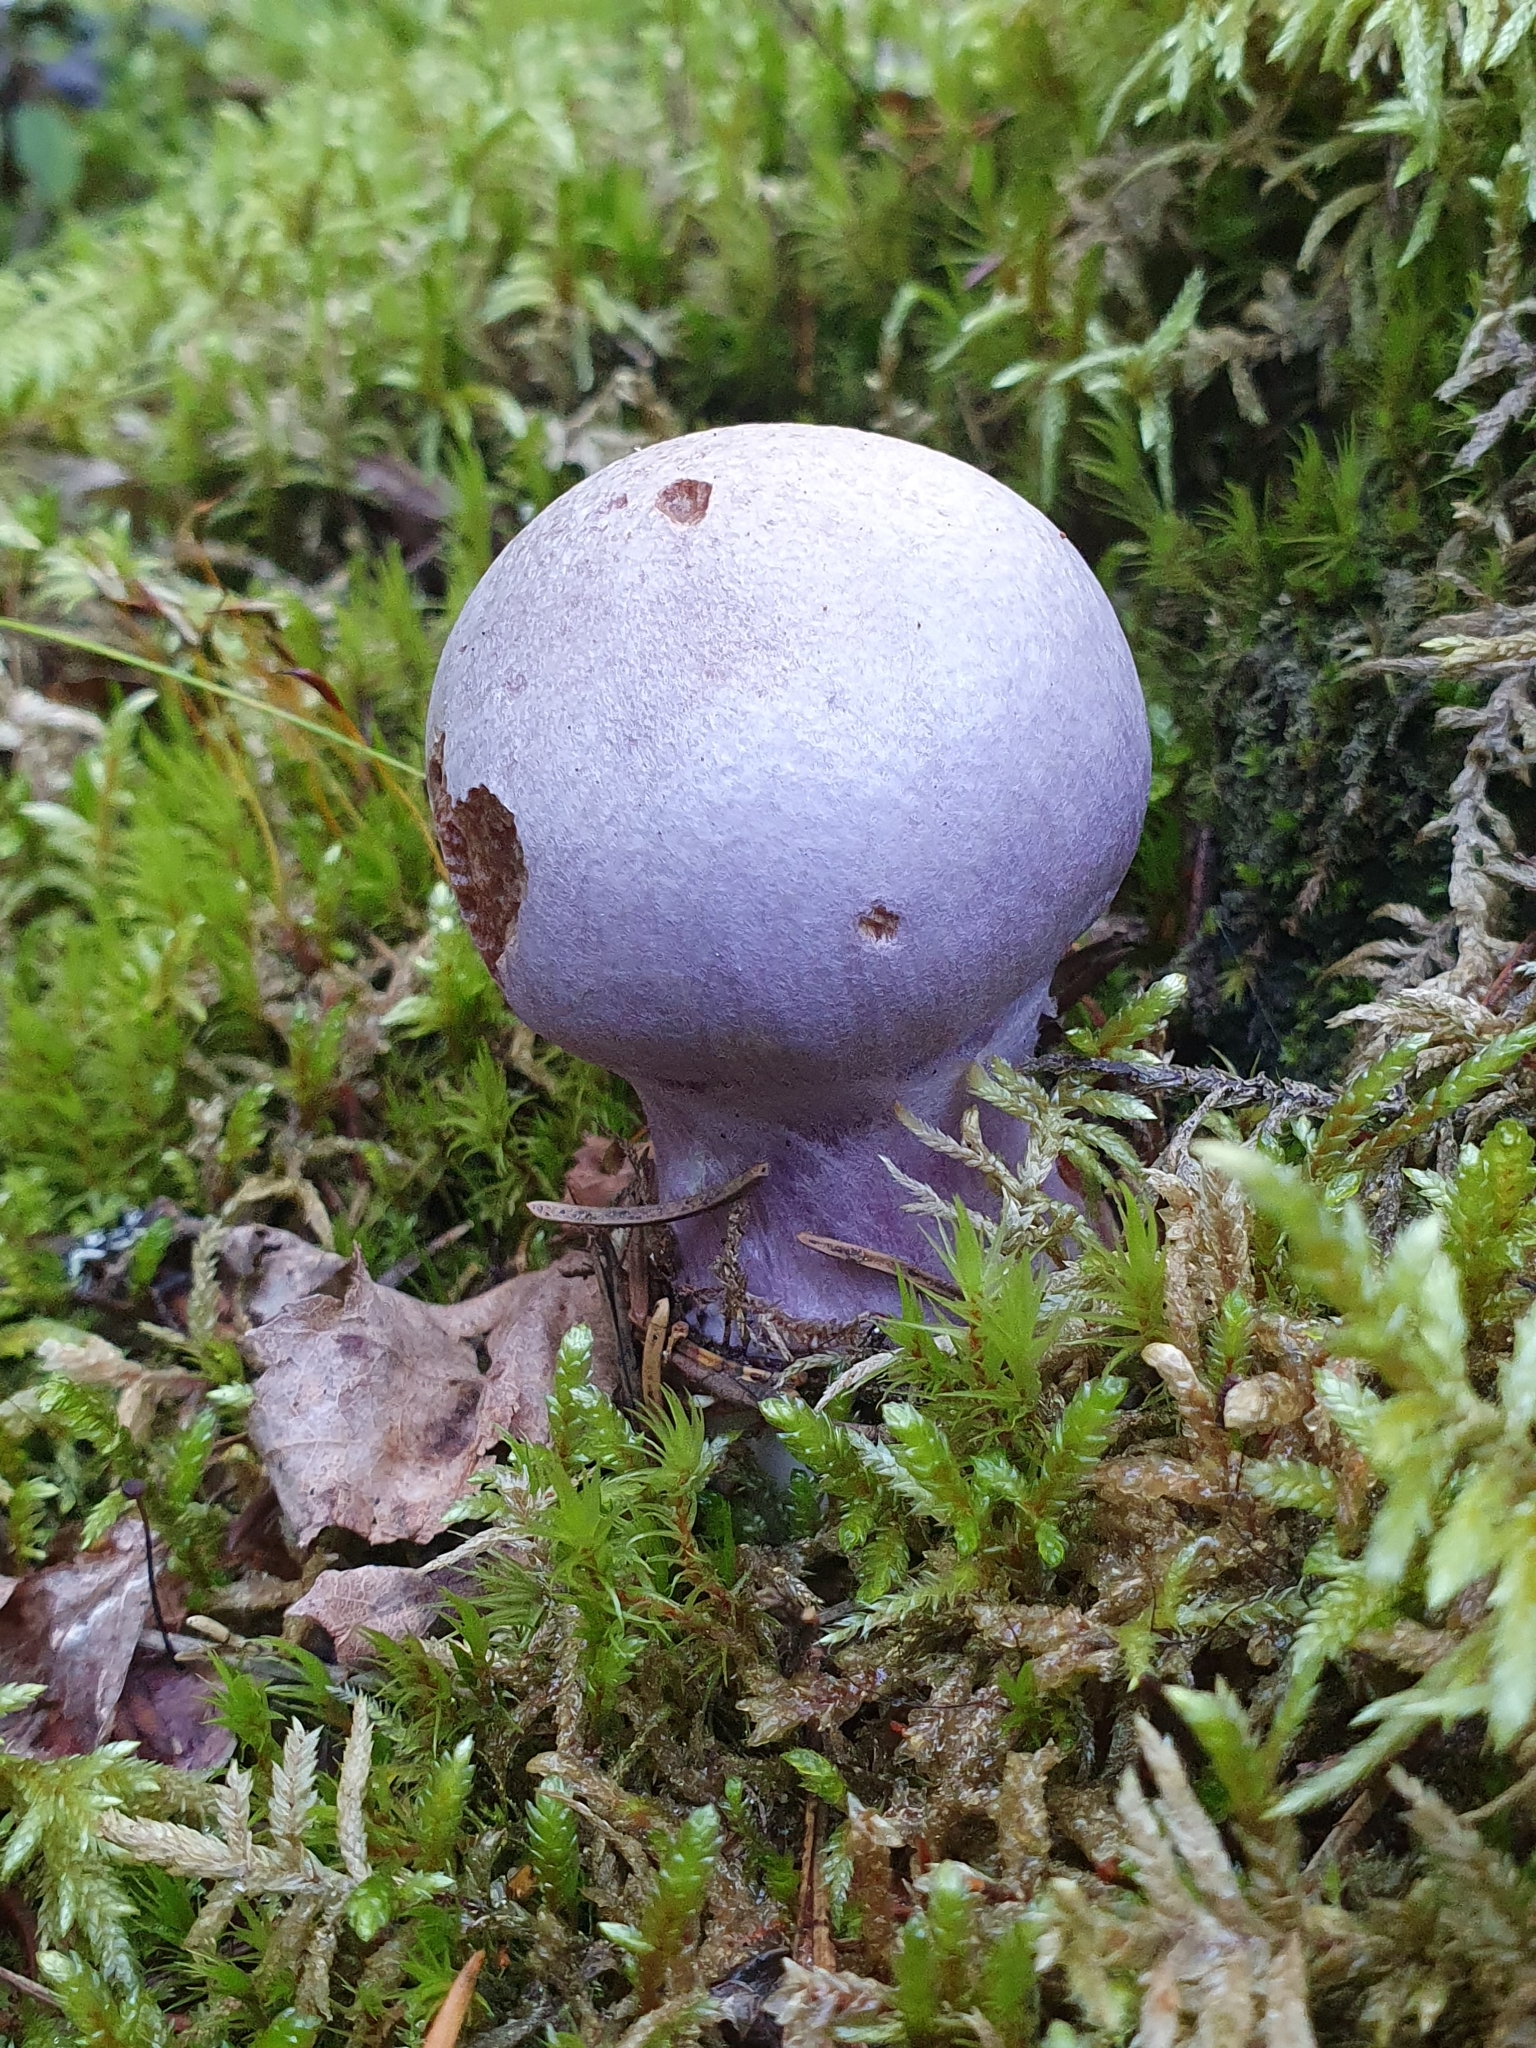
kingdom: Fungi
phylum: Basidiomycota
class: Agaricomycetes
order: Agaricales
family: Cortinariaceae
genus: Cortinarius
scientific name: Cortinarius traganus
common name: Gassy webcap
